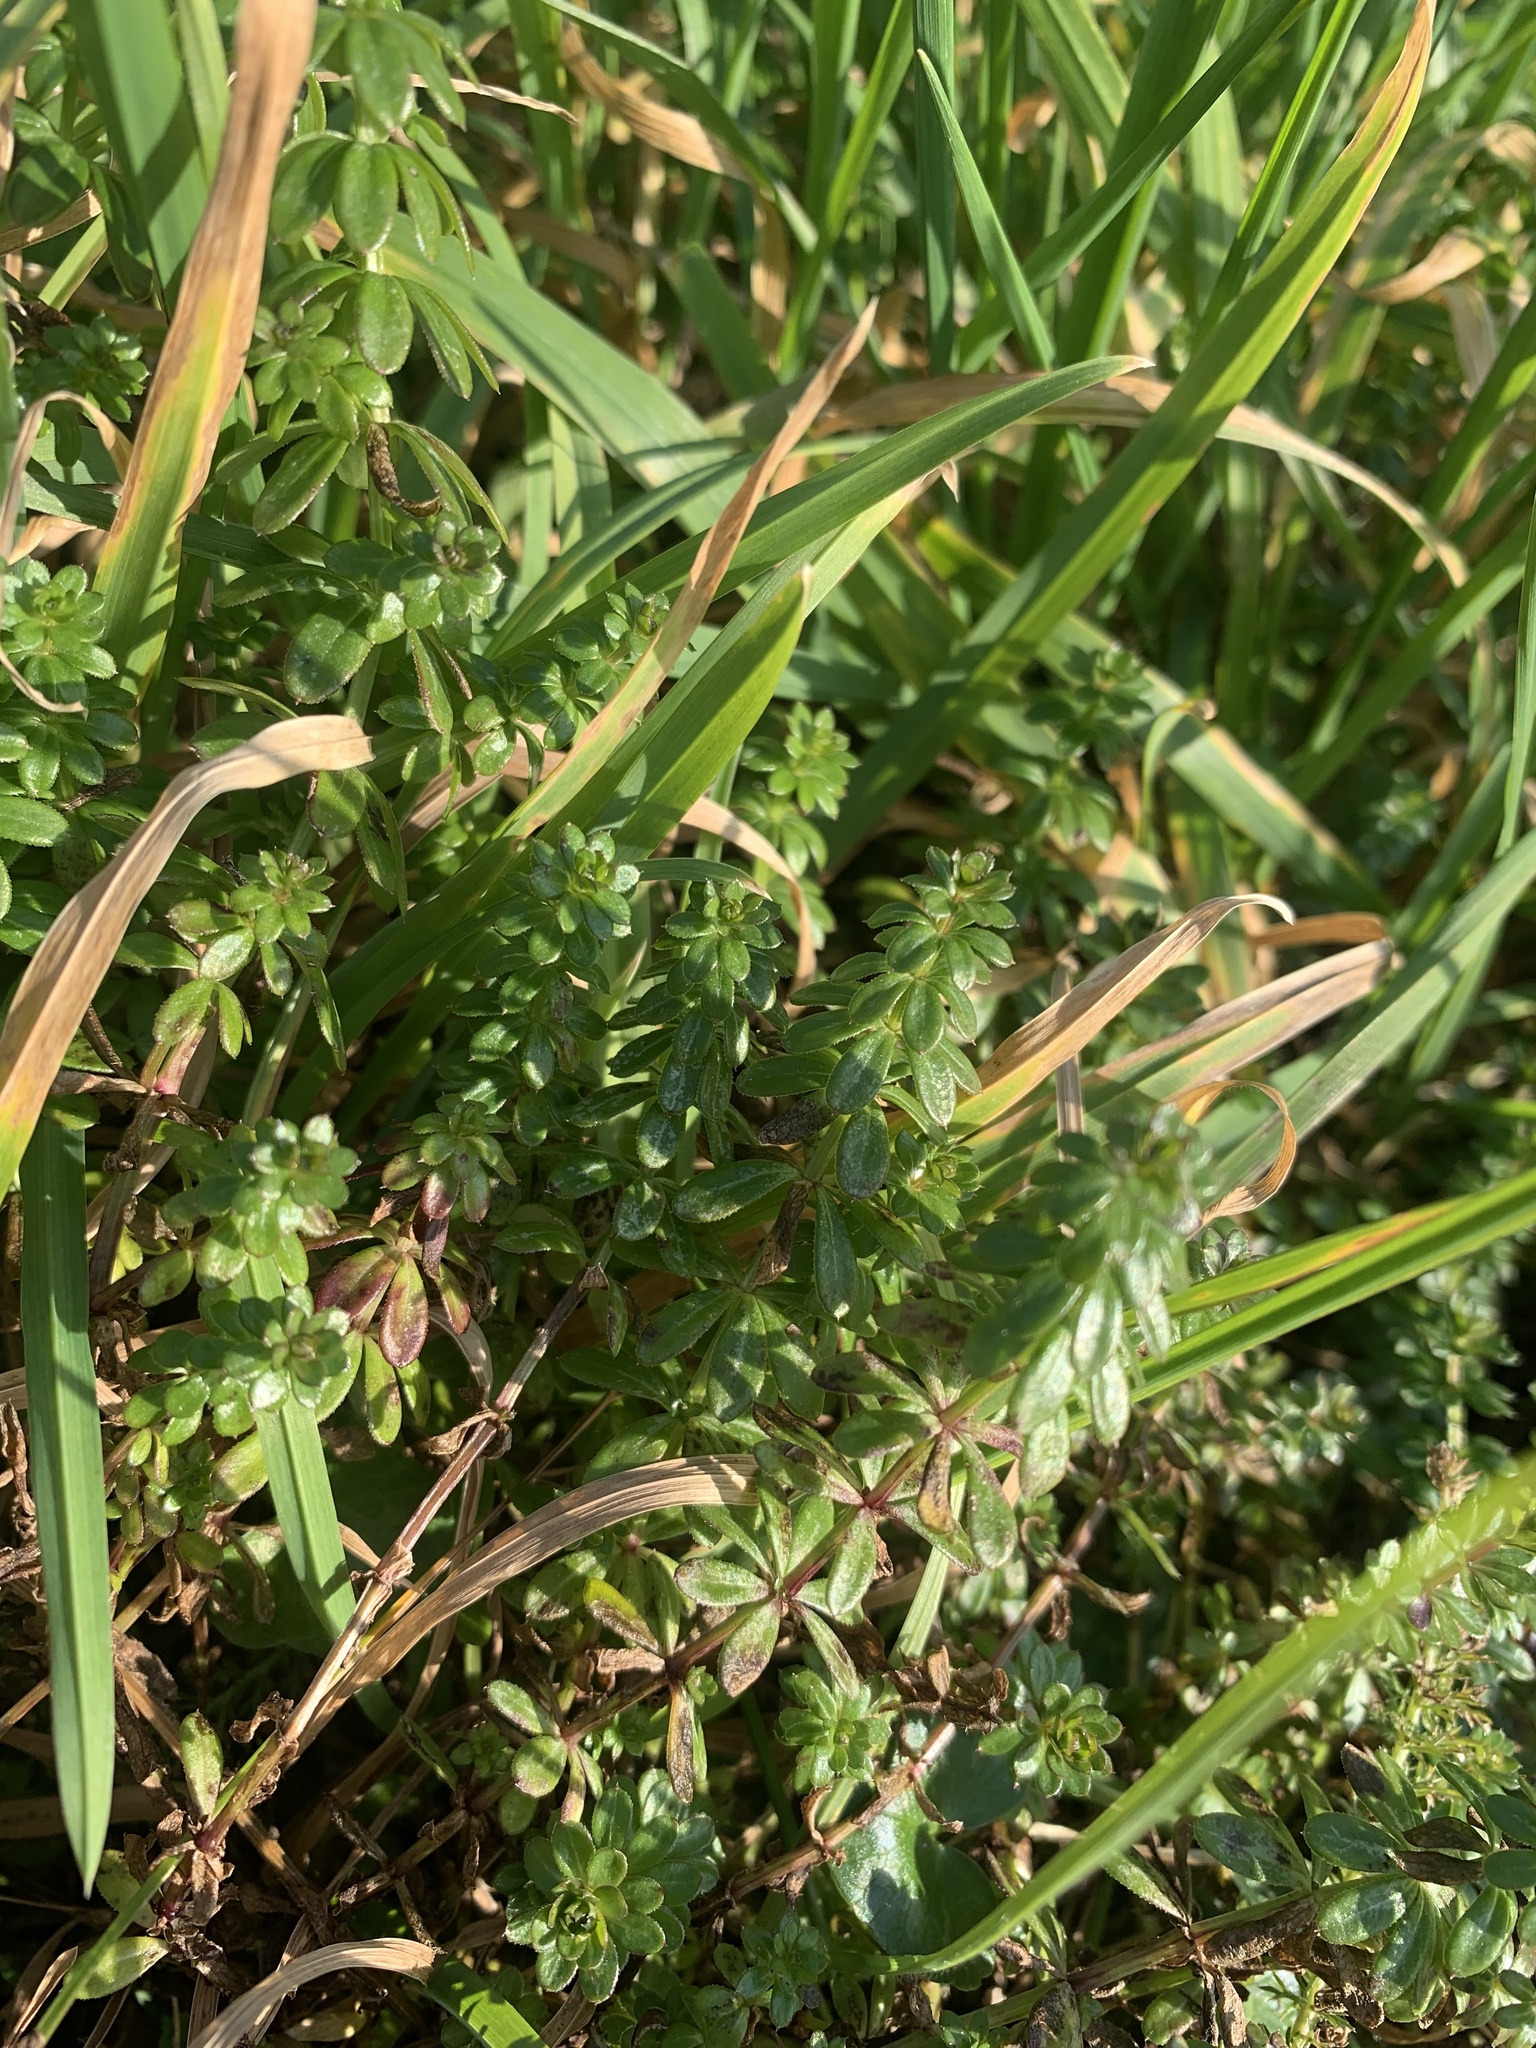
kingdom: Plantae
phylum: Tracheophyta
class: Magnoliopsida
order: Gentianales
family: Rubiaceae
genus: Galium
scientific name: Galium album
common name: White bedstraw
